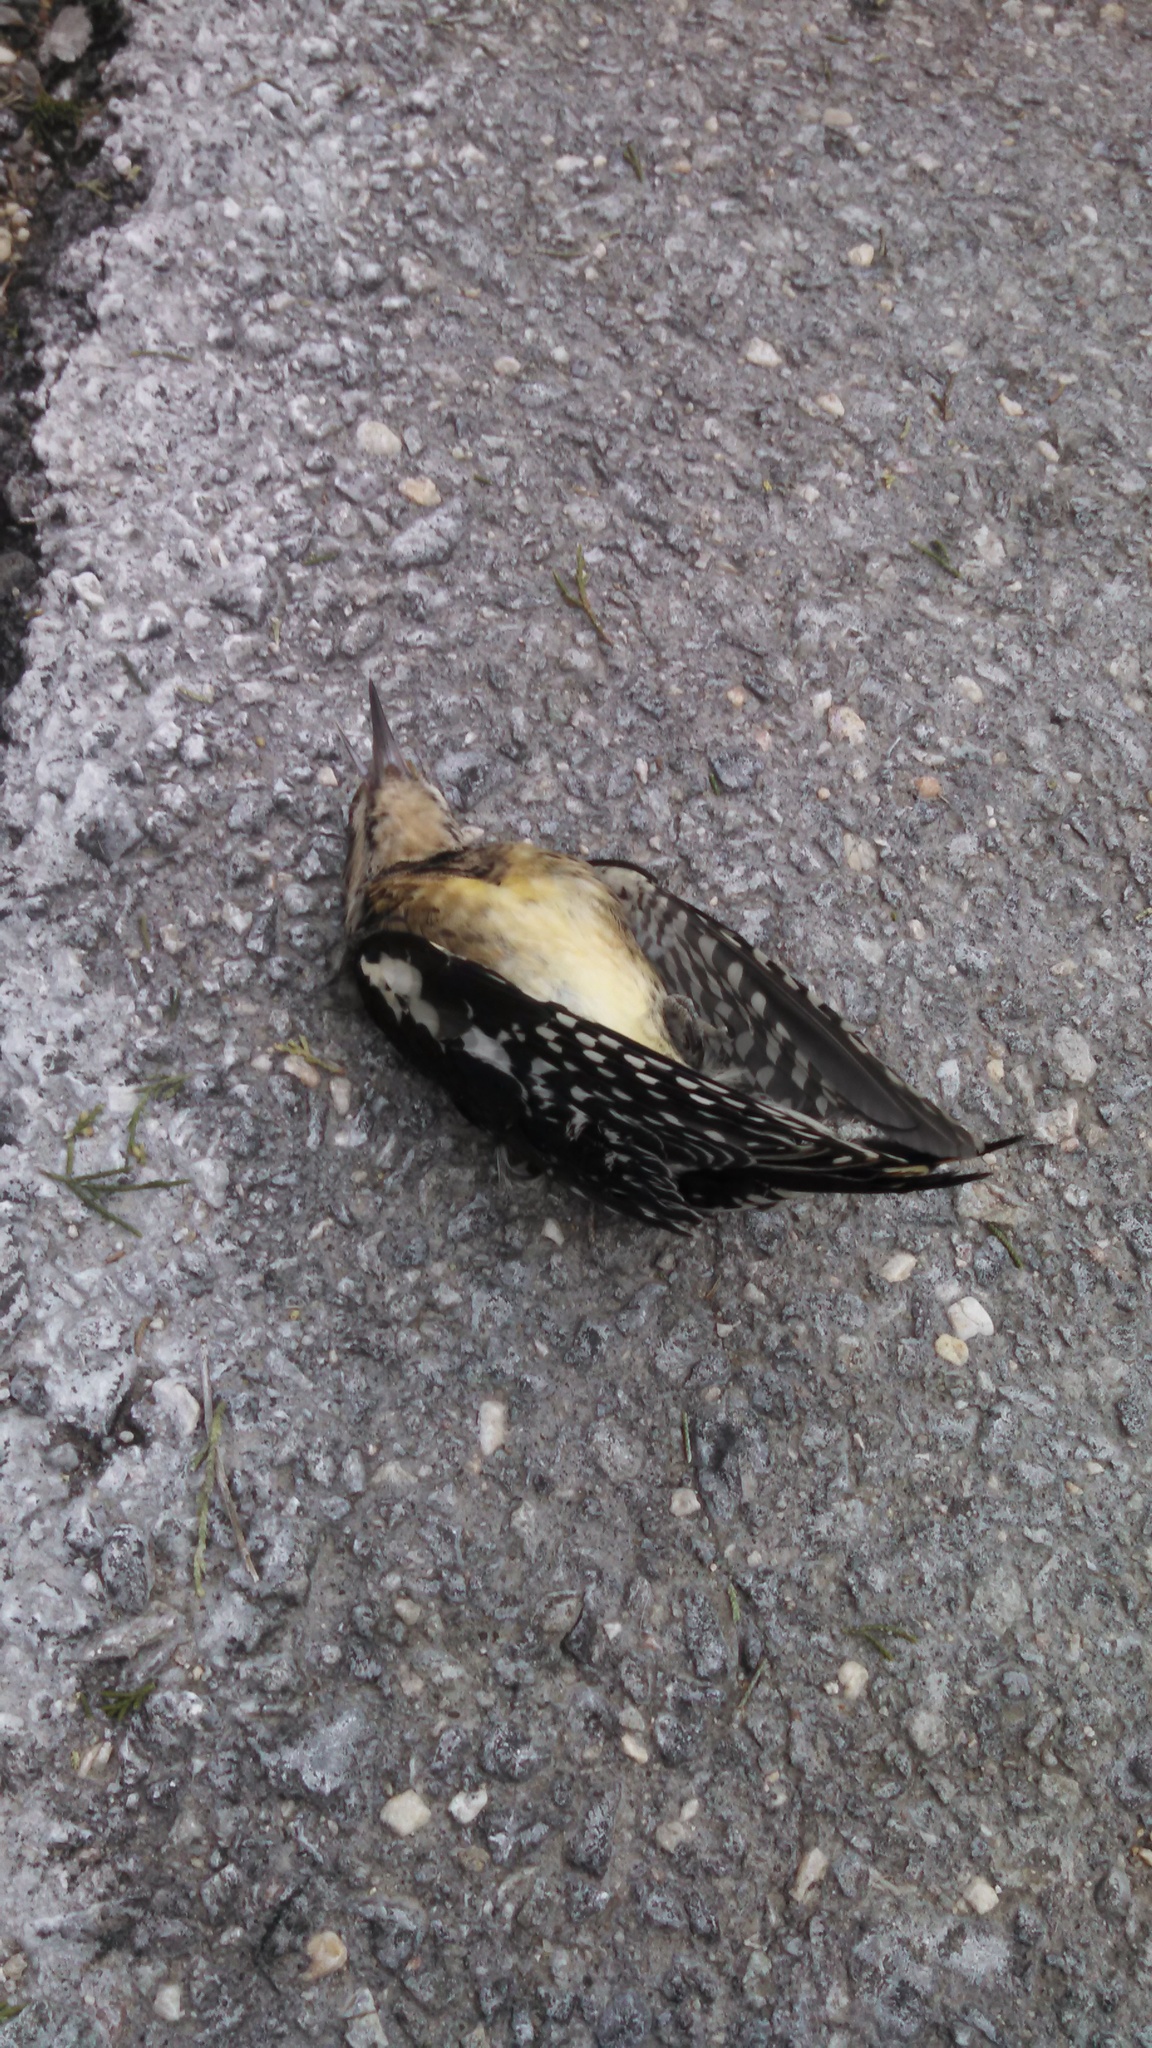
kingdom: Animalia
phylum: Chordata
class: Aves
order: Piciformes
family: Picidae
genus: Sphyrapicus
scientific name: Sphyrapicus varius
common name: Yellow-bellied sapsucker
